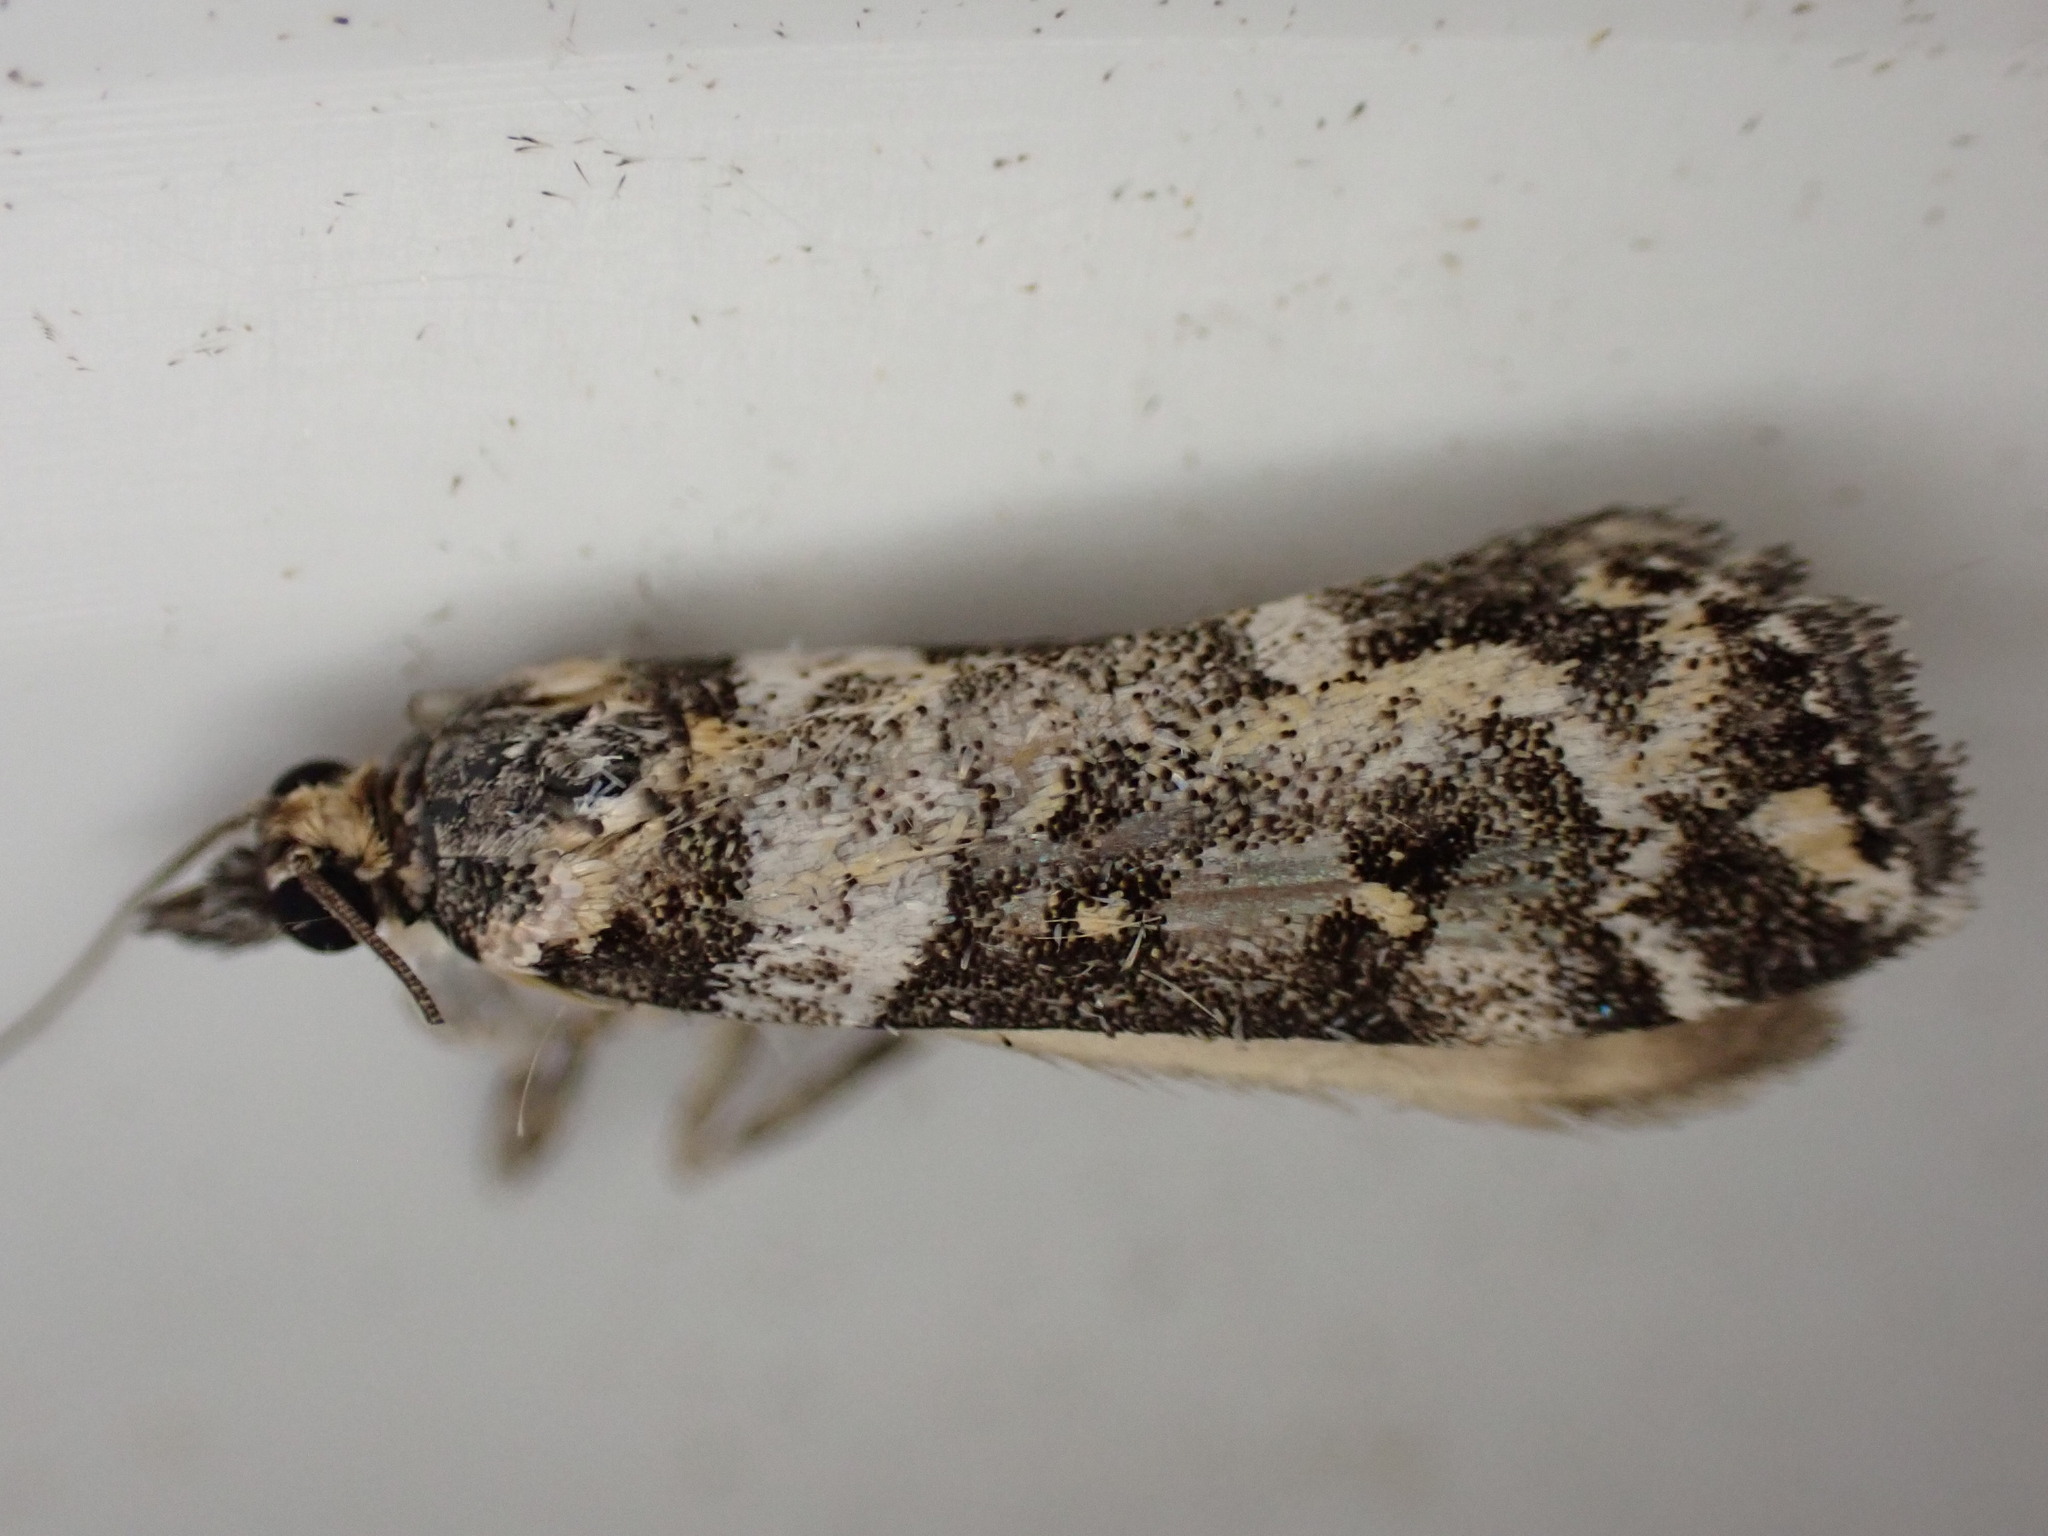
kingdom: Animalia
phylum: Arthropoda
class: Insecta
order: Lepidoptera
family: Crambidae
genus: Eudonia
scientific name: Eudonia diphtheralis
